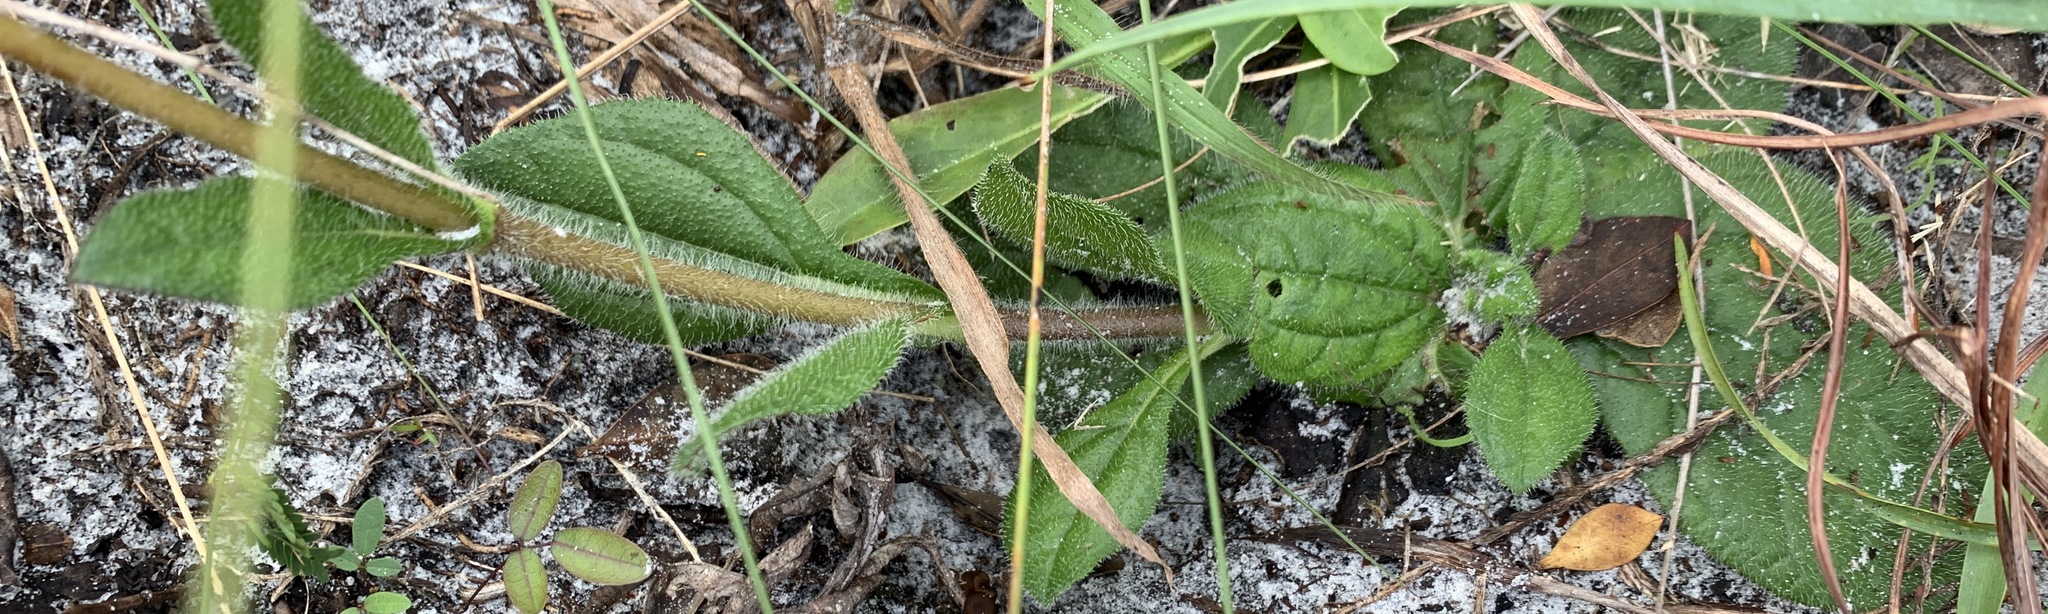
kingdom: Plantae
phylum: Tracheophyta
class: Magnoliopsida
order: Asterales
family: Asteraceae
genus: Helianthus
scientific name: Helianthus radula
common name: Pineland sunflower
